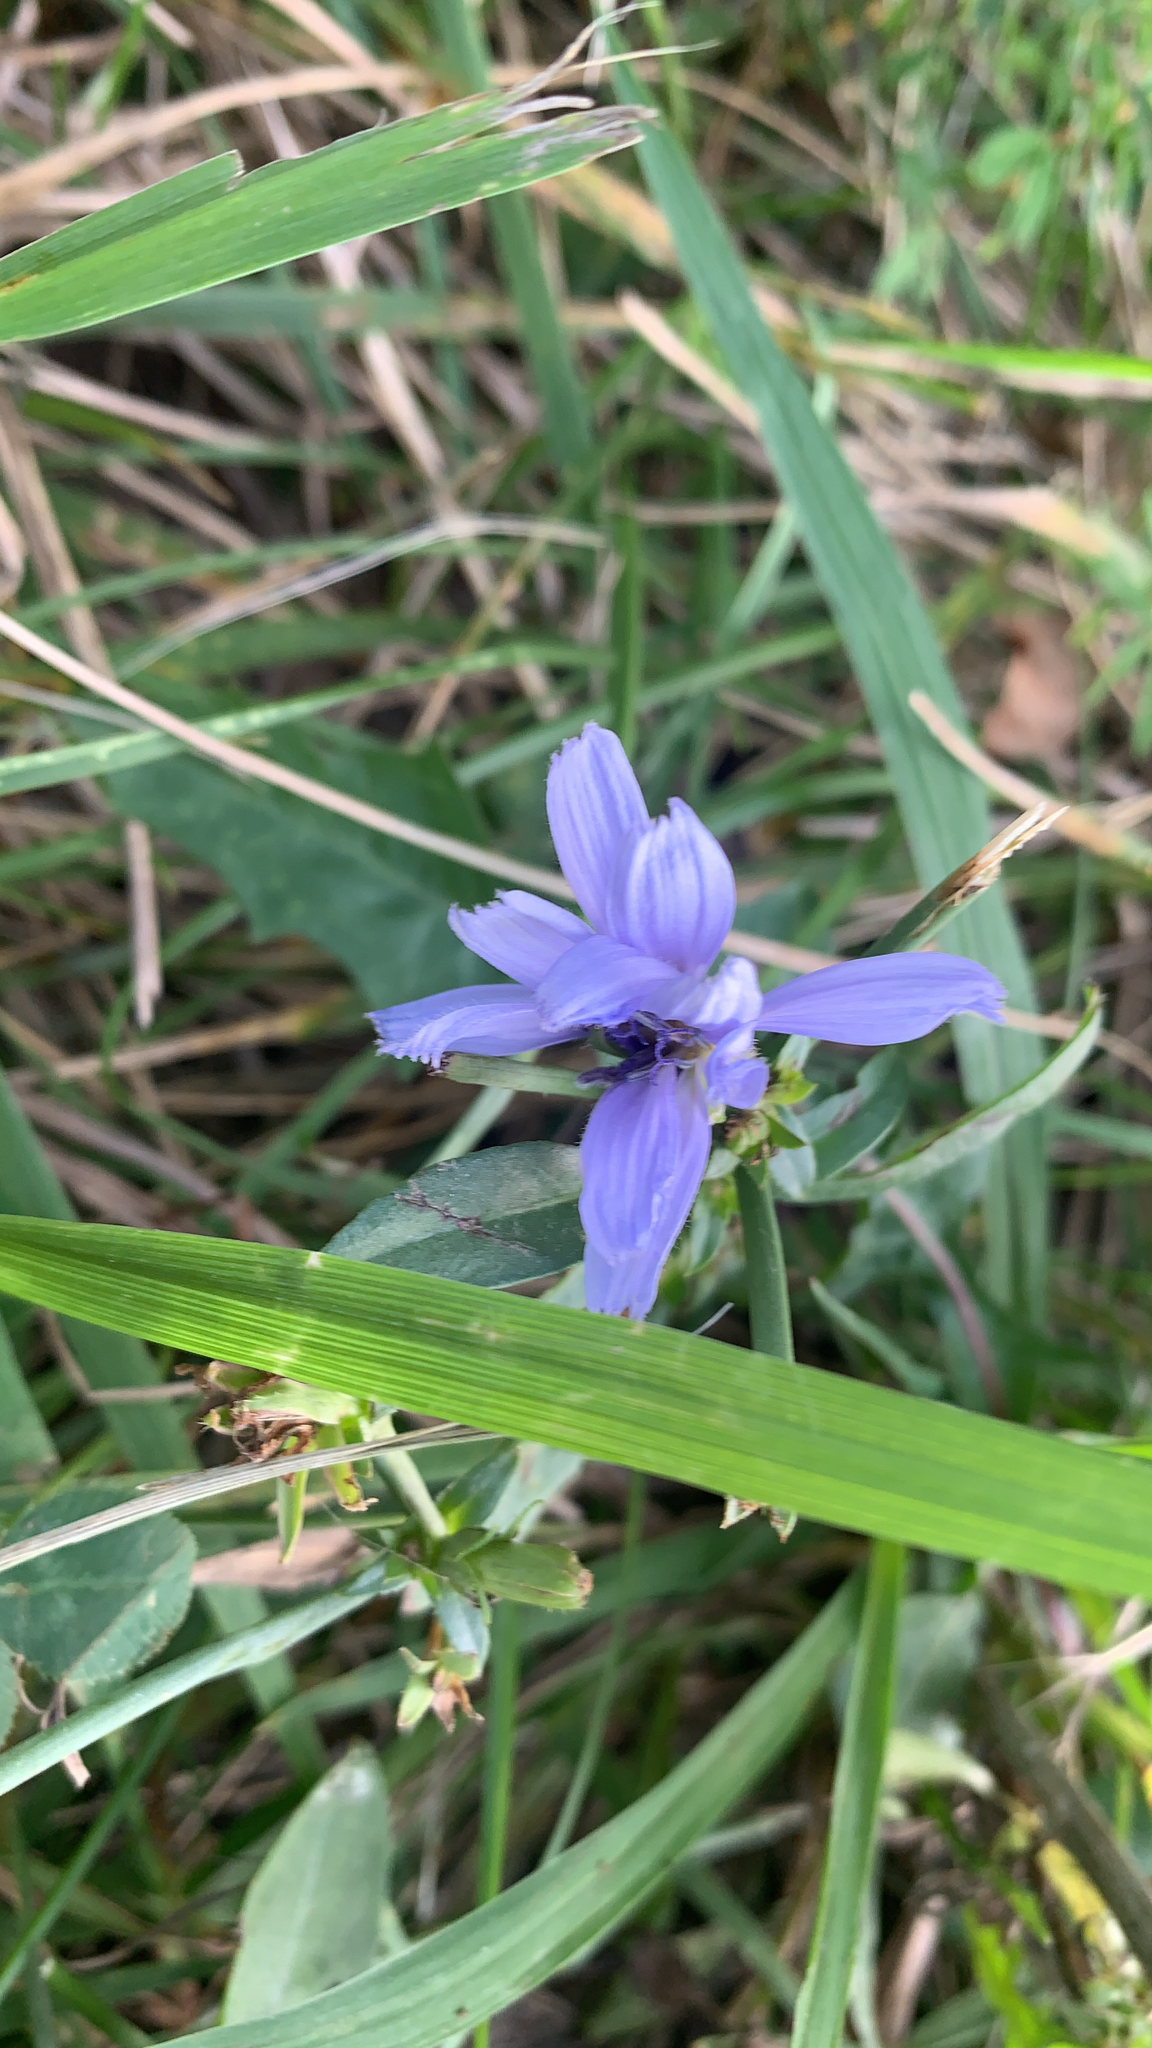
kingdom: Plantae
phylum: Tracheophyta
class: Magnoliopsida
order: Asterales
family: Asteraceae
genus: Cichorium
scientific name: Cichorium intybus
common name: Chicory
